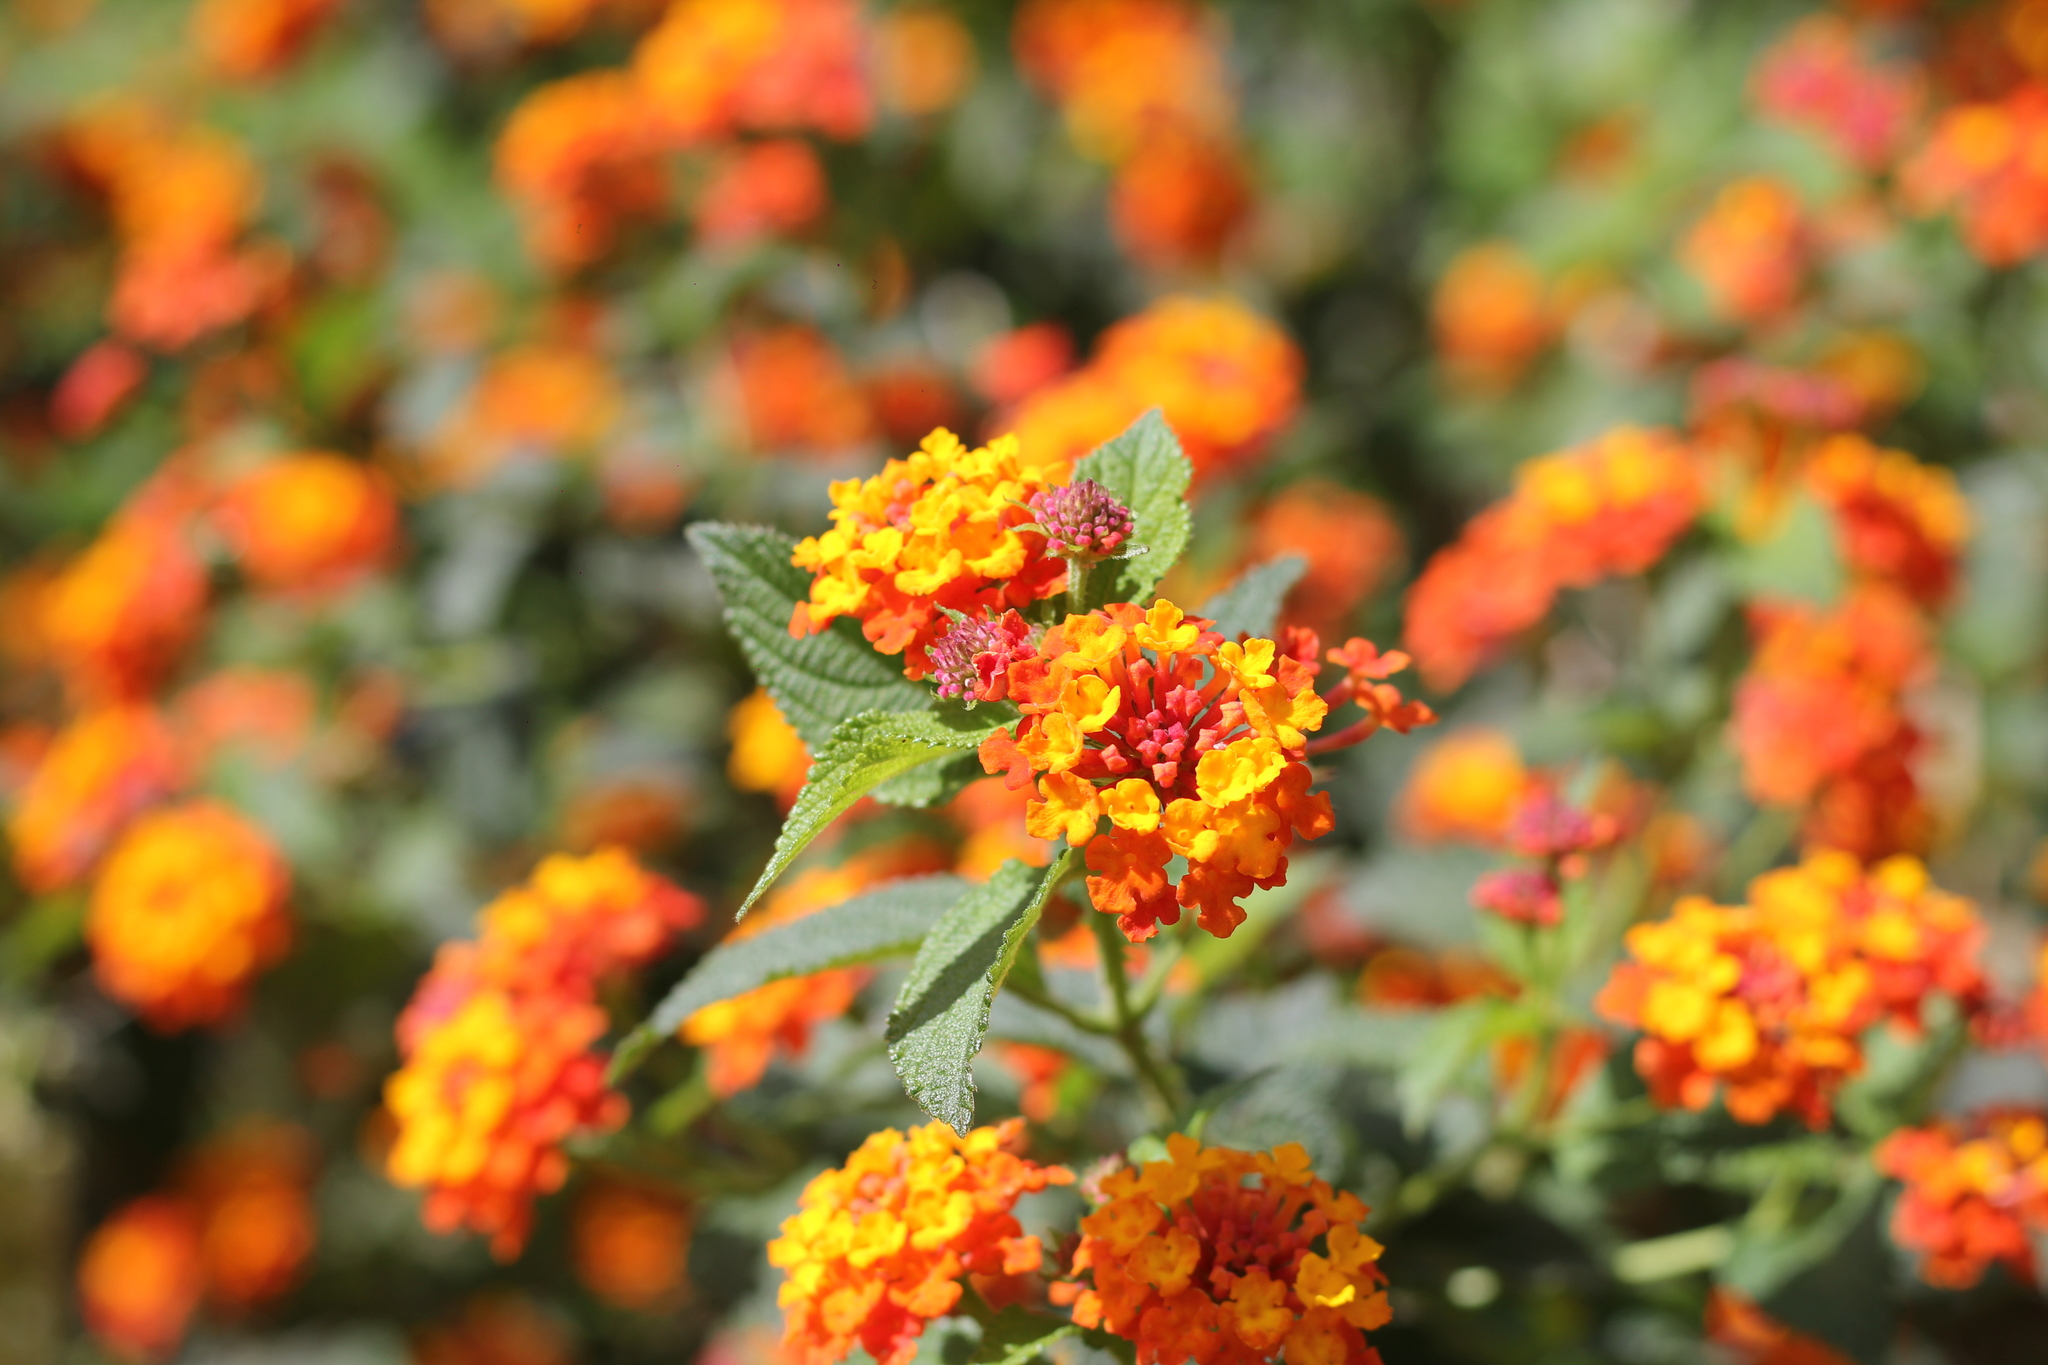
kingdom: Plantae
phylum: Tracheophyta
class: Magnoliopsida
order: Lamiales
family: Verbenaceae
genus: Lantana
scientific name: Lantana camara
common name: Lantana
